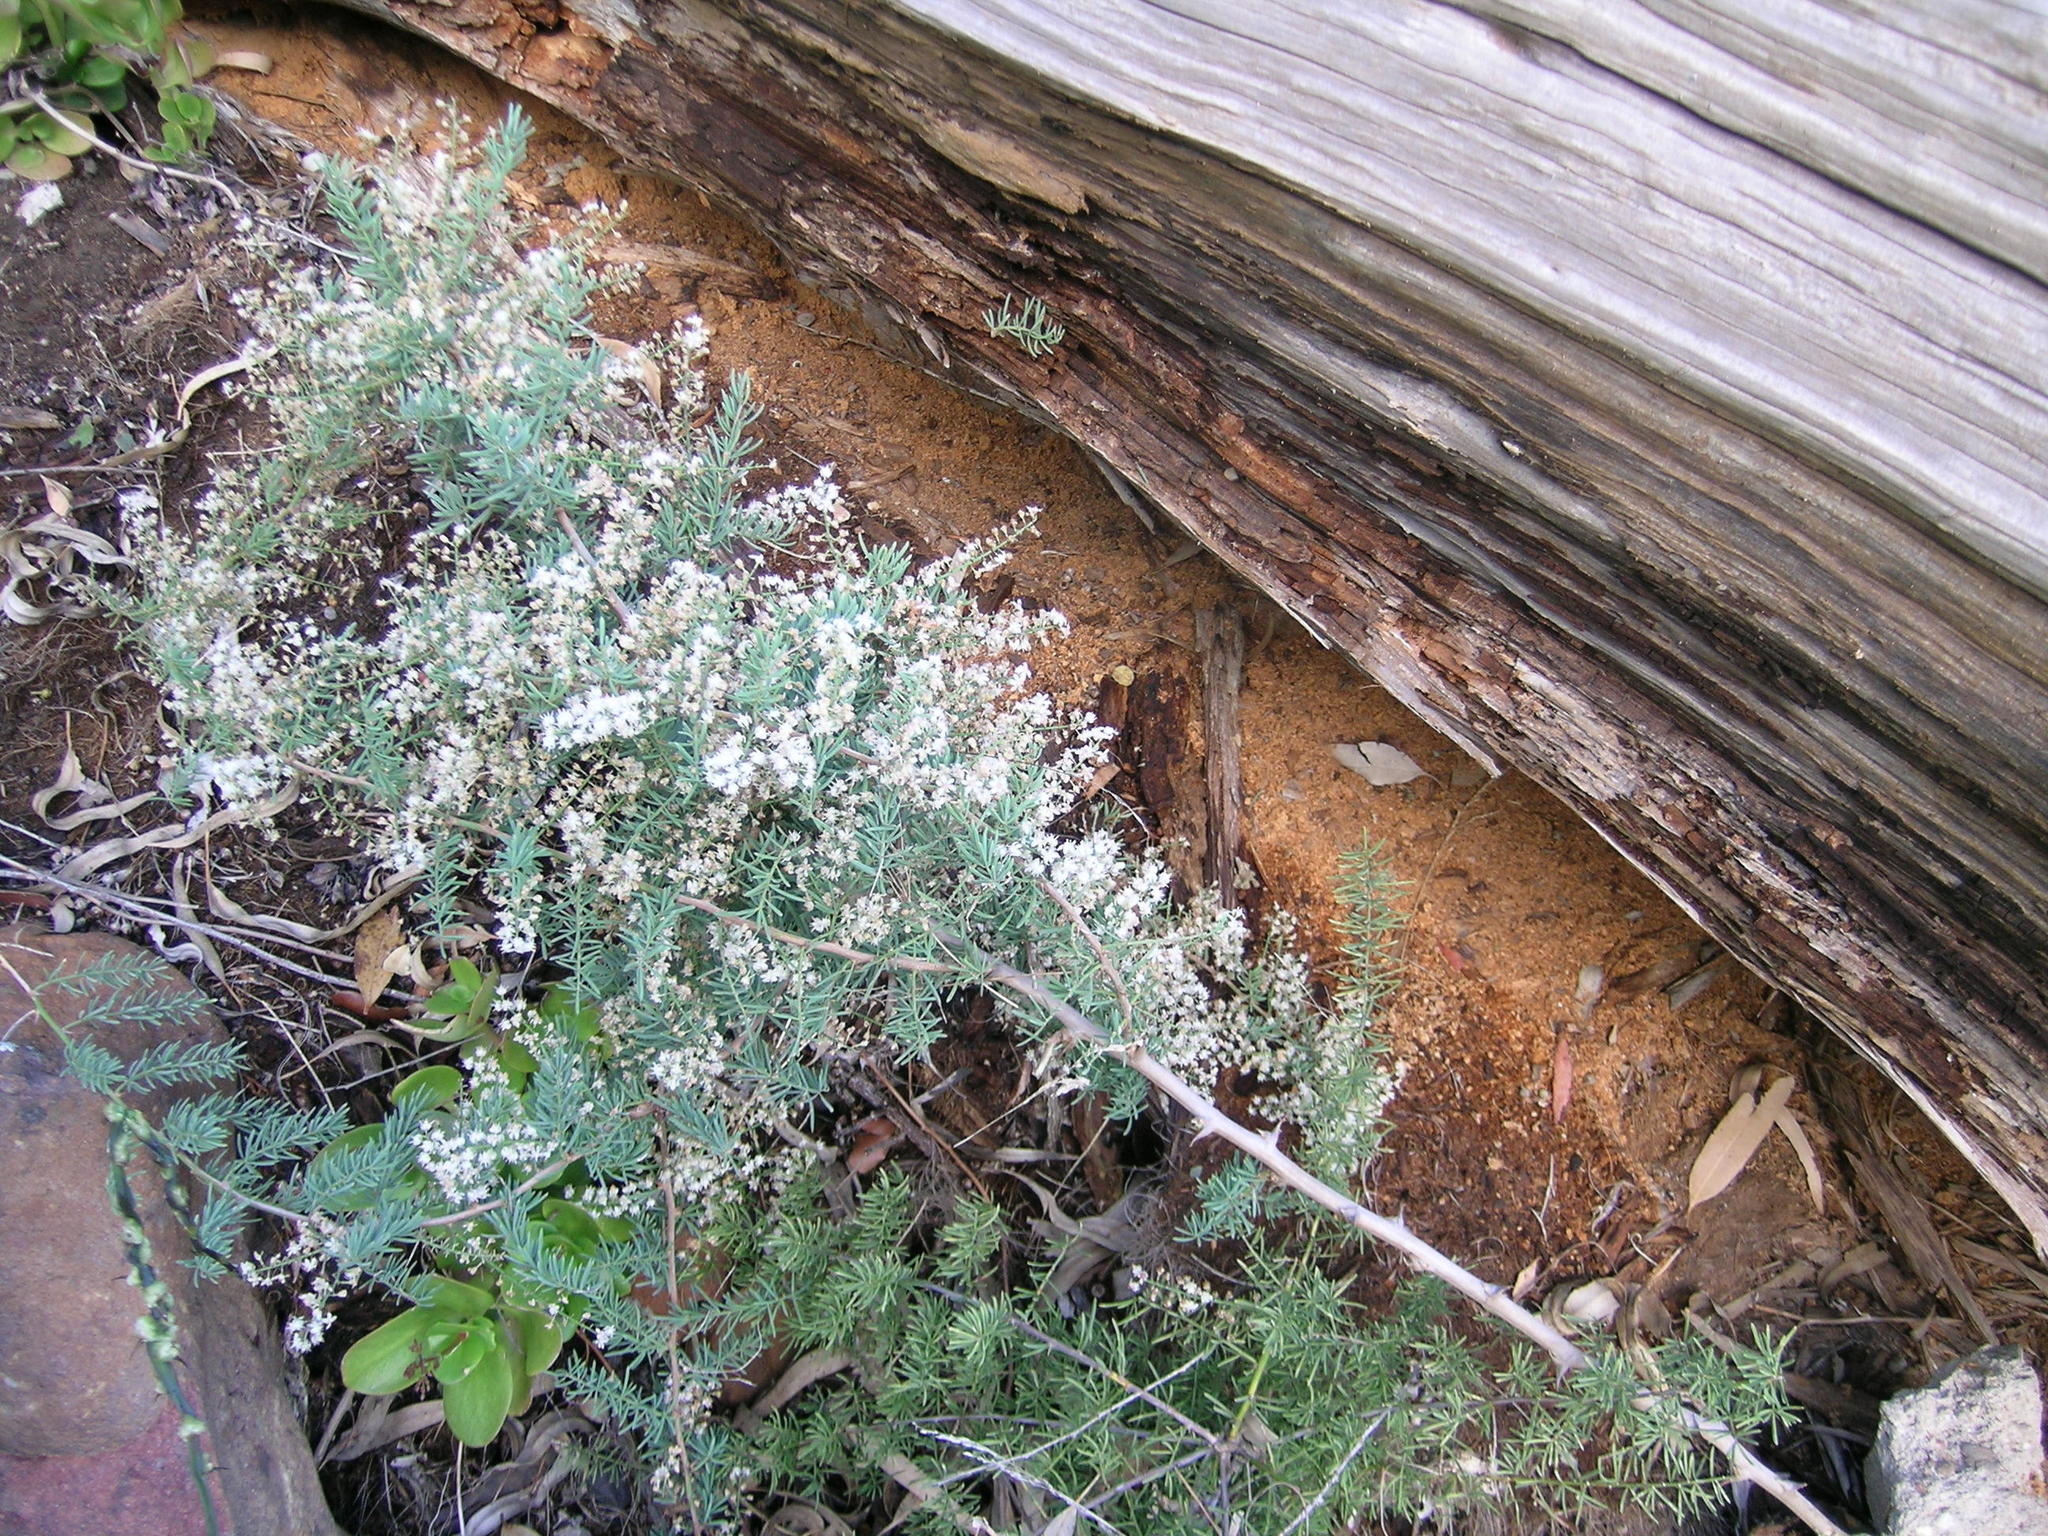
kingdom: Plantae
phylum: Tracheophyta
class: Liliopsida
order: Asparagales
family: Asparagaceae
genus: Asparagus
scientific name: Asparagus aethiopicus
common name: Sprenger's asparagus fern
